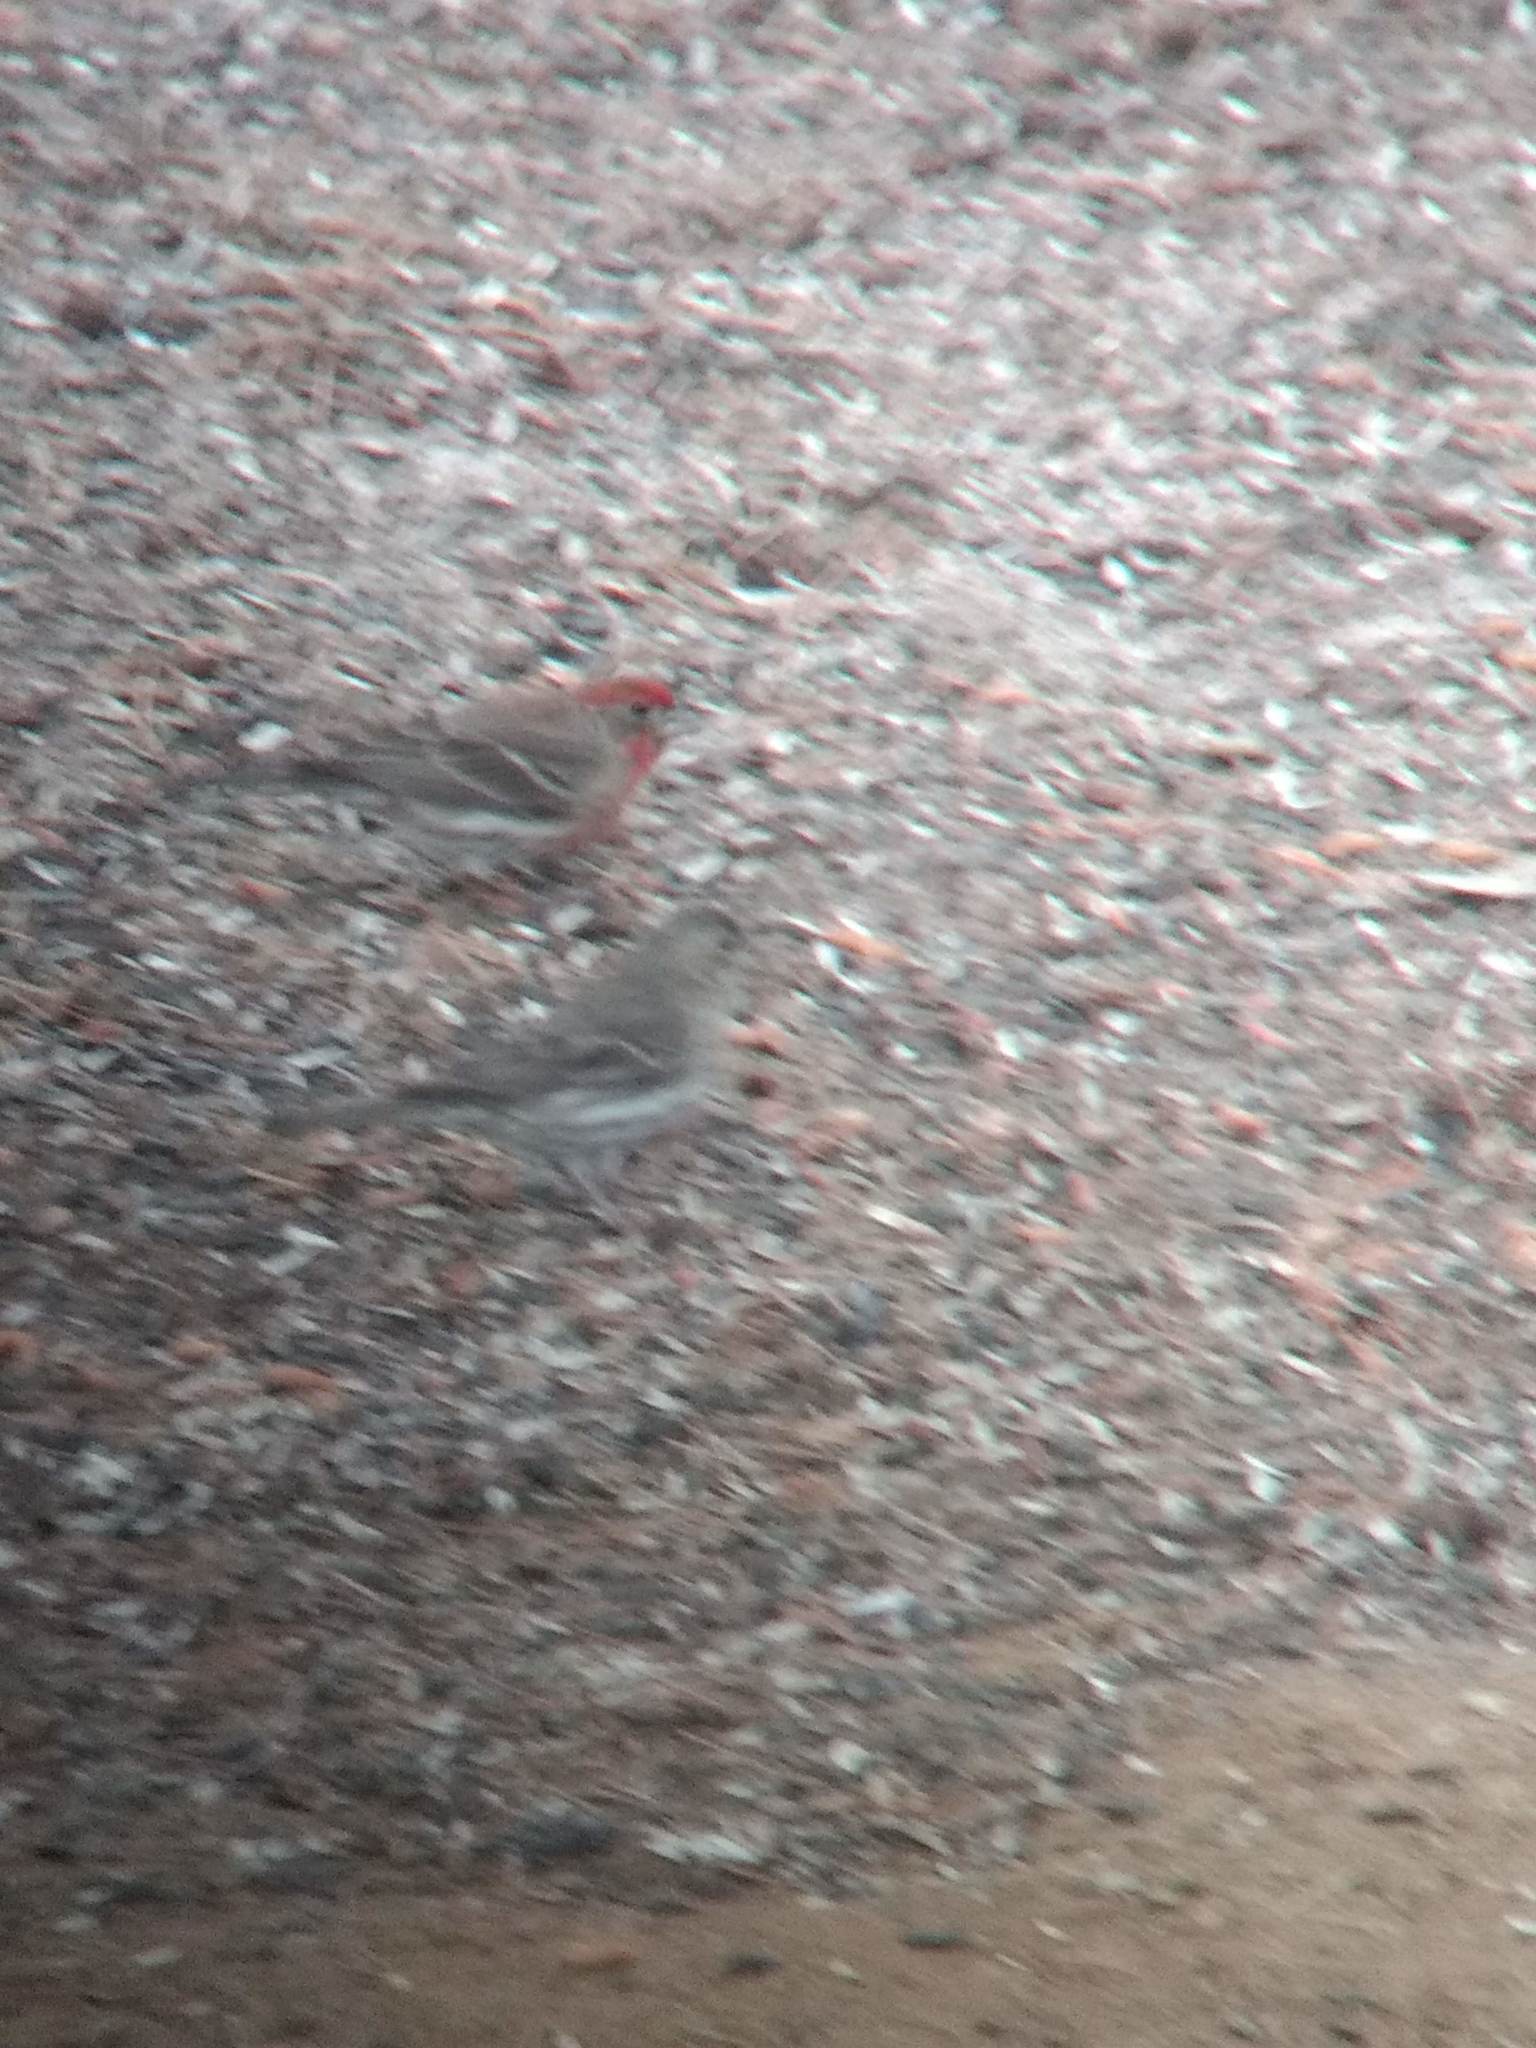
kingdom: Animalia
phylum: Chordata
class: Aves
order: Passeriformes
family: Fringillidae
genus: Haemorhous
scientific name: Haemorhous mexicanus
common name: House finch
